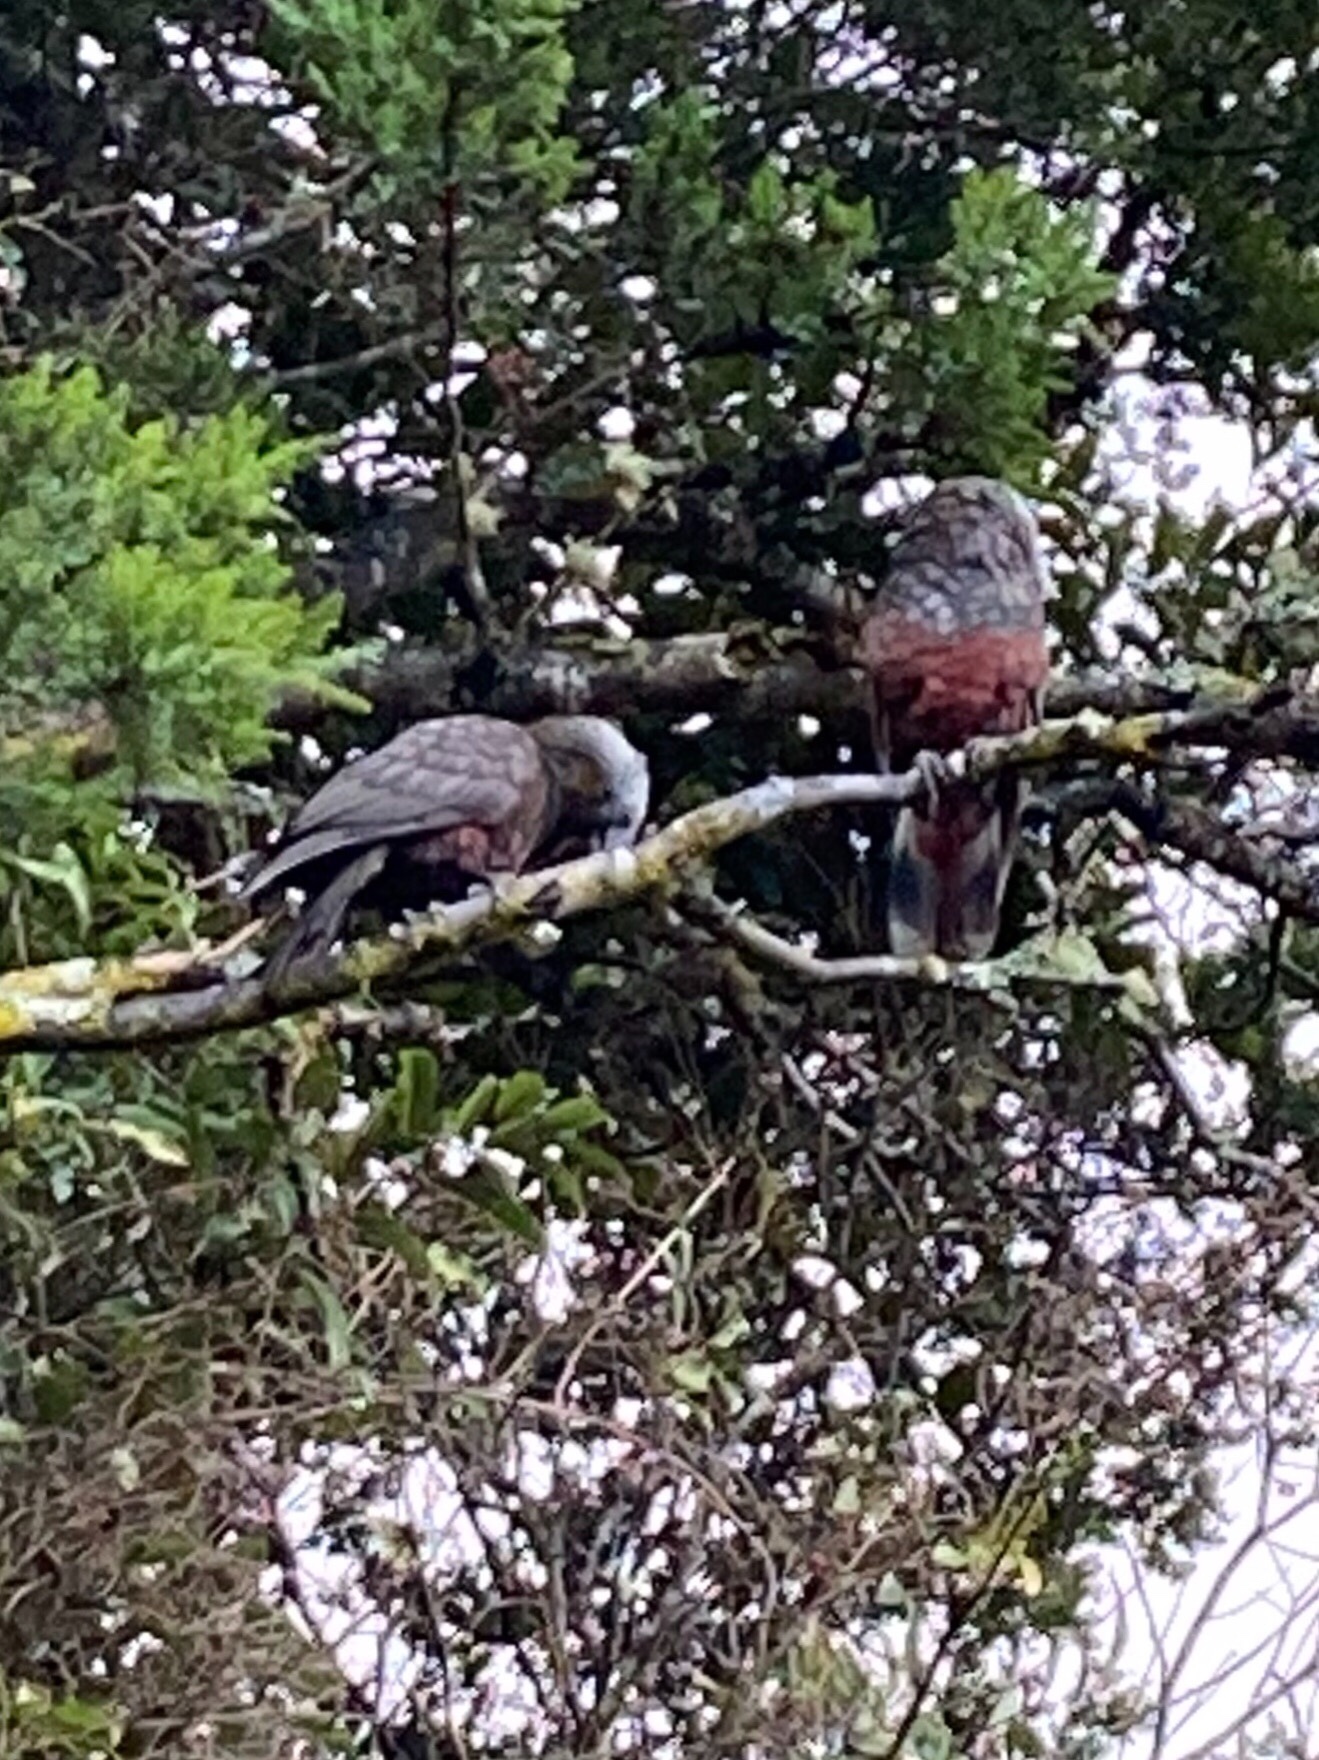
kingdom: Animalia
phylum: Chordata
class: Aves
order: Psittaciformes
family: Psittacidae
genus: Nestor
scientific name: Nestor meridionalis
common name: New zealand kaka
